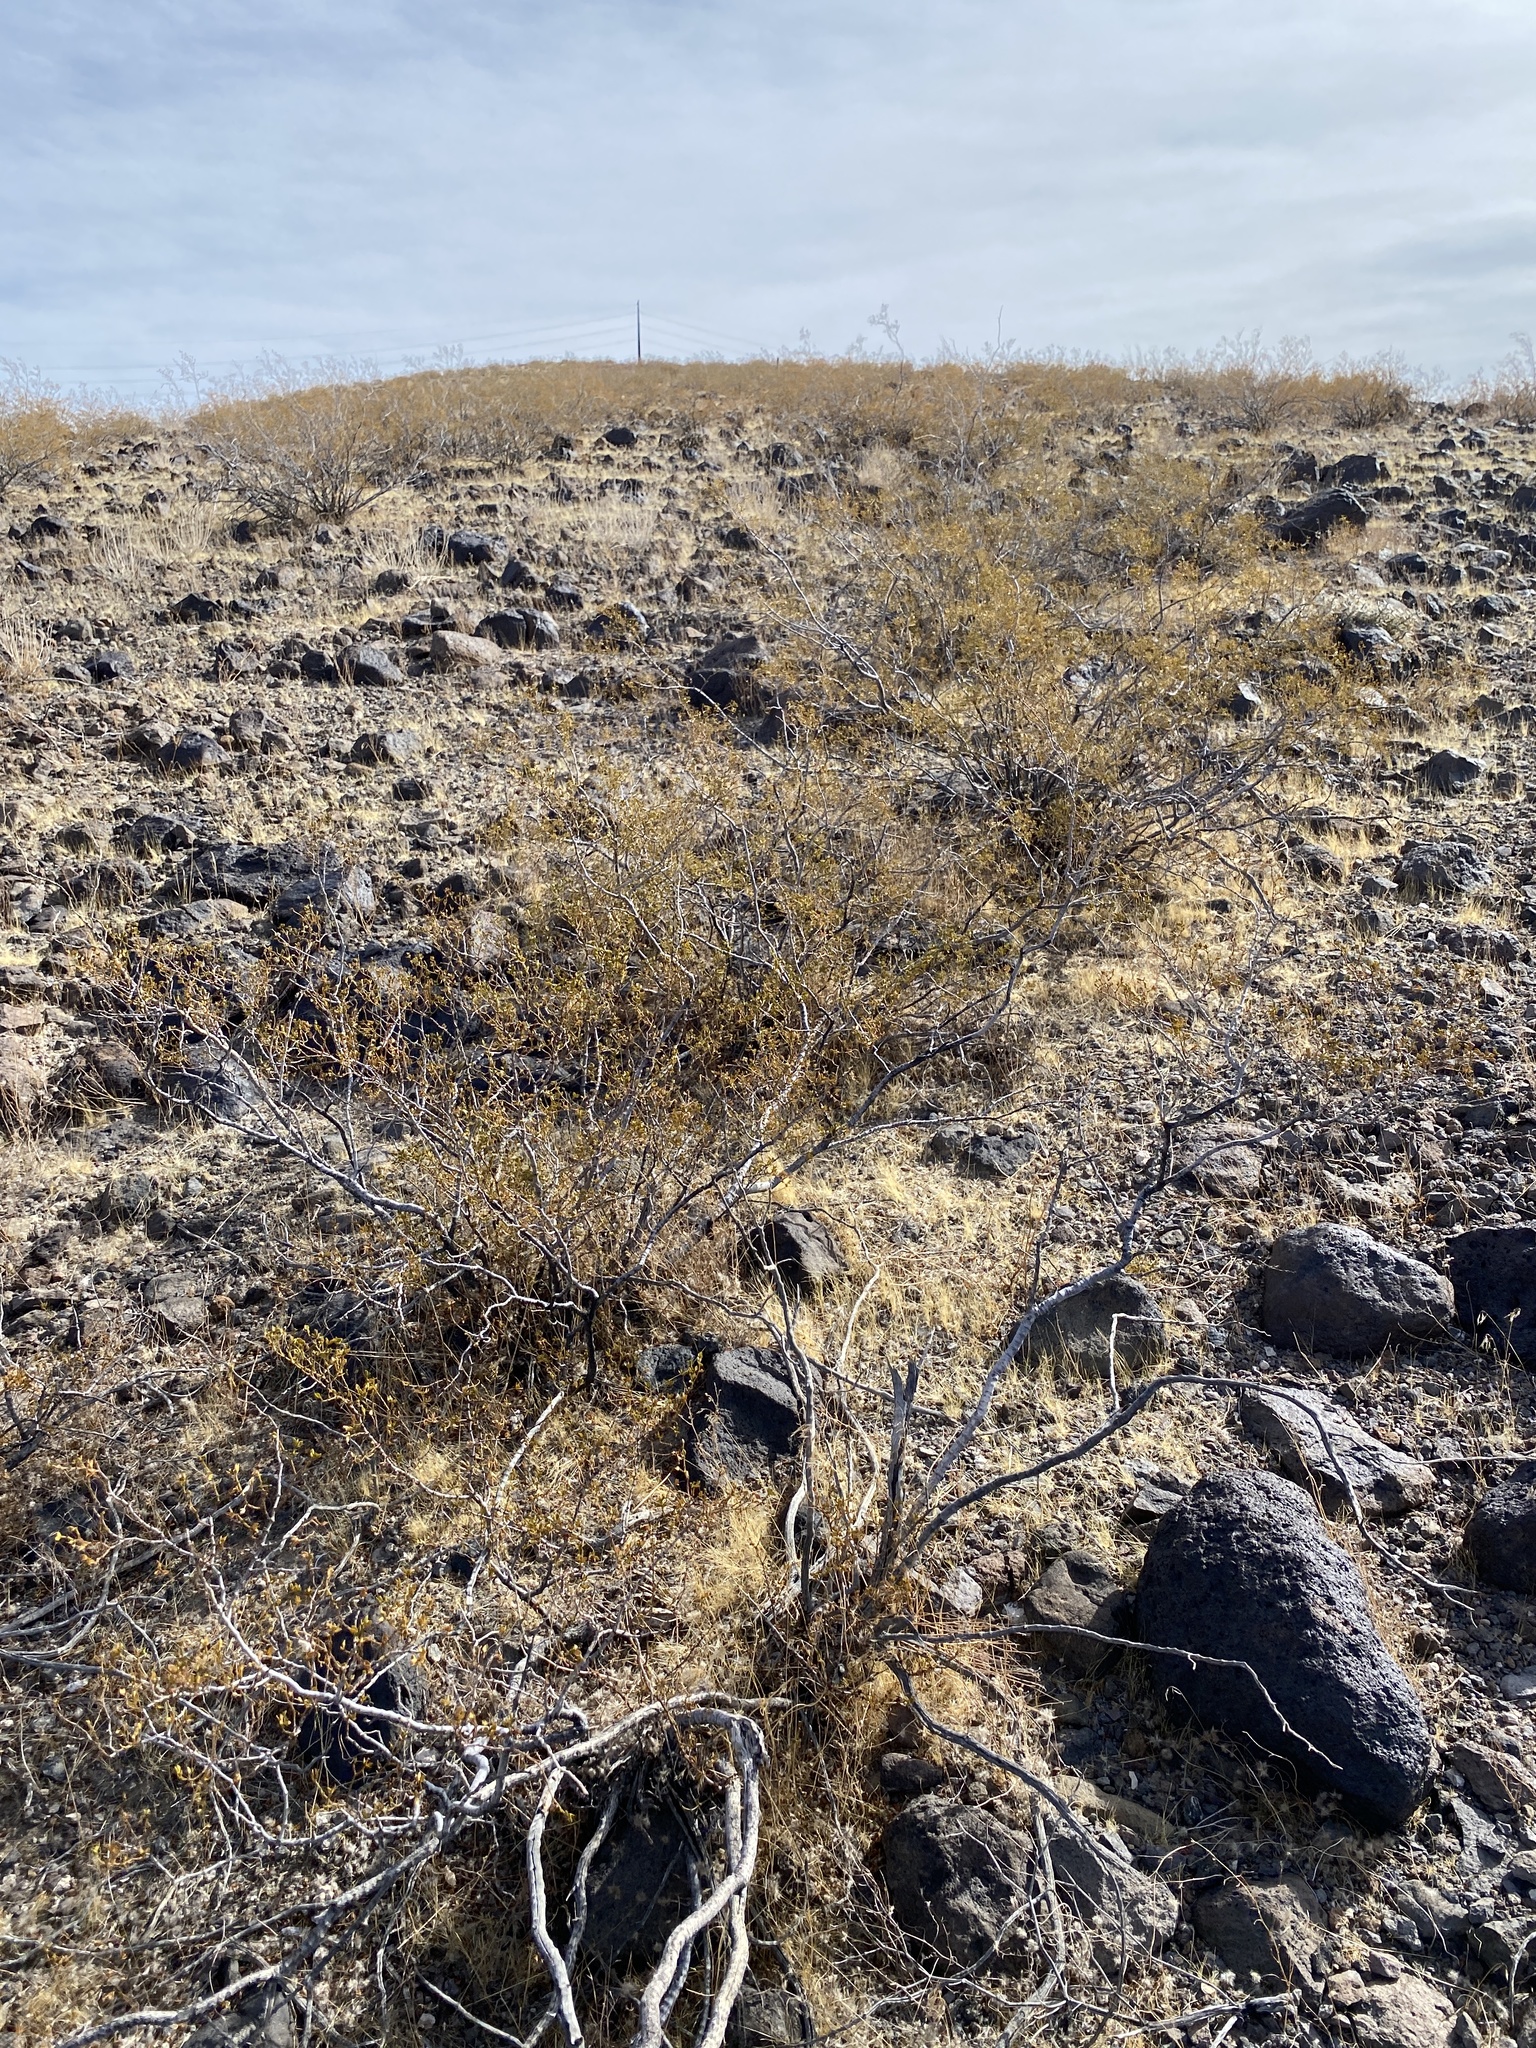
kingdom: Plantae
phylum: Tracheophyta
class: Magnoliopsida
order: Zygophyllales
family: Zygophyllaceae
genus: Larrea
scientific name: Larrea tridentata
